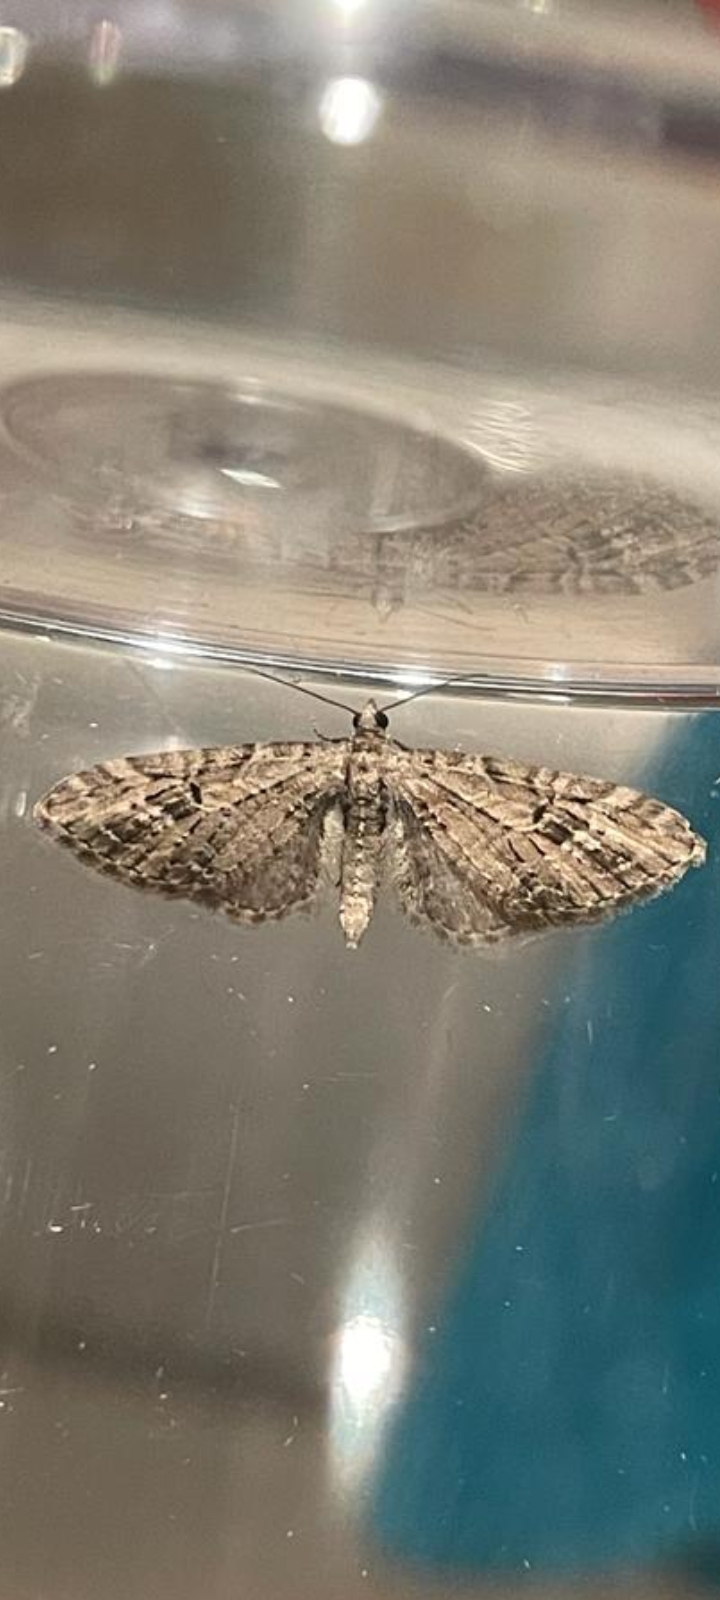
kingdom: Animalia
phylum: Arthropoda
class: Insecta
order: Lepidoptera
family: Geometridae
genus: Eupithecia
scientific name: Eupithecia exiguata
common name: Mottled pug
